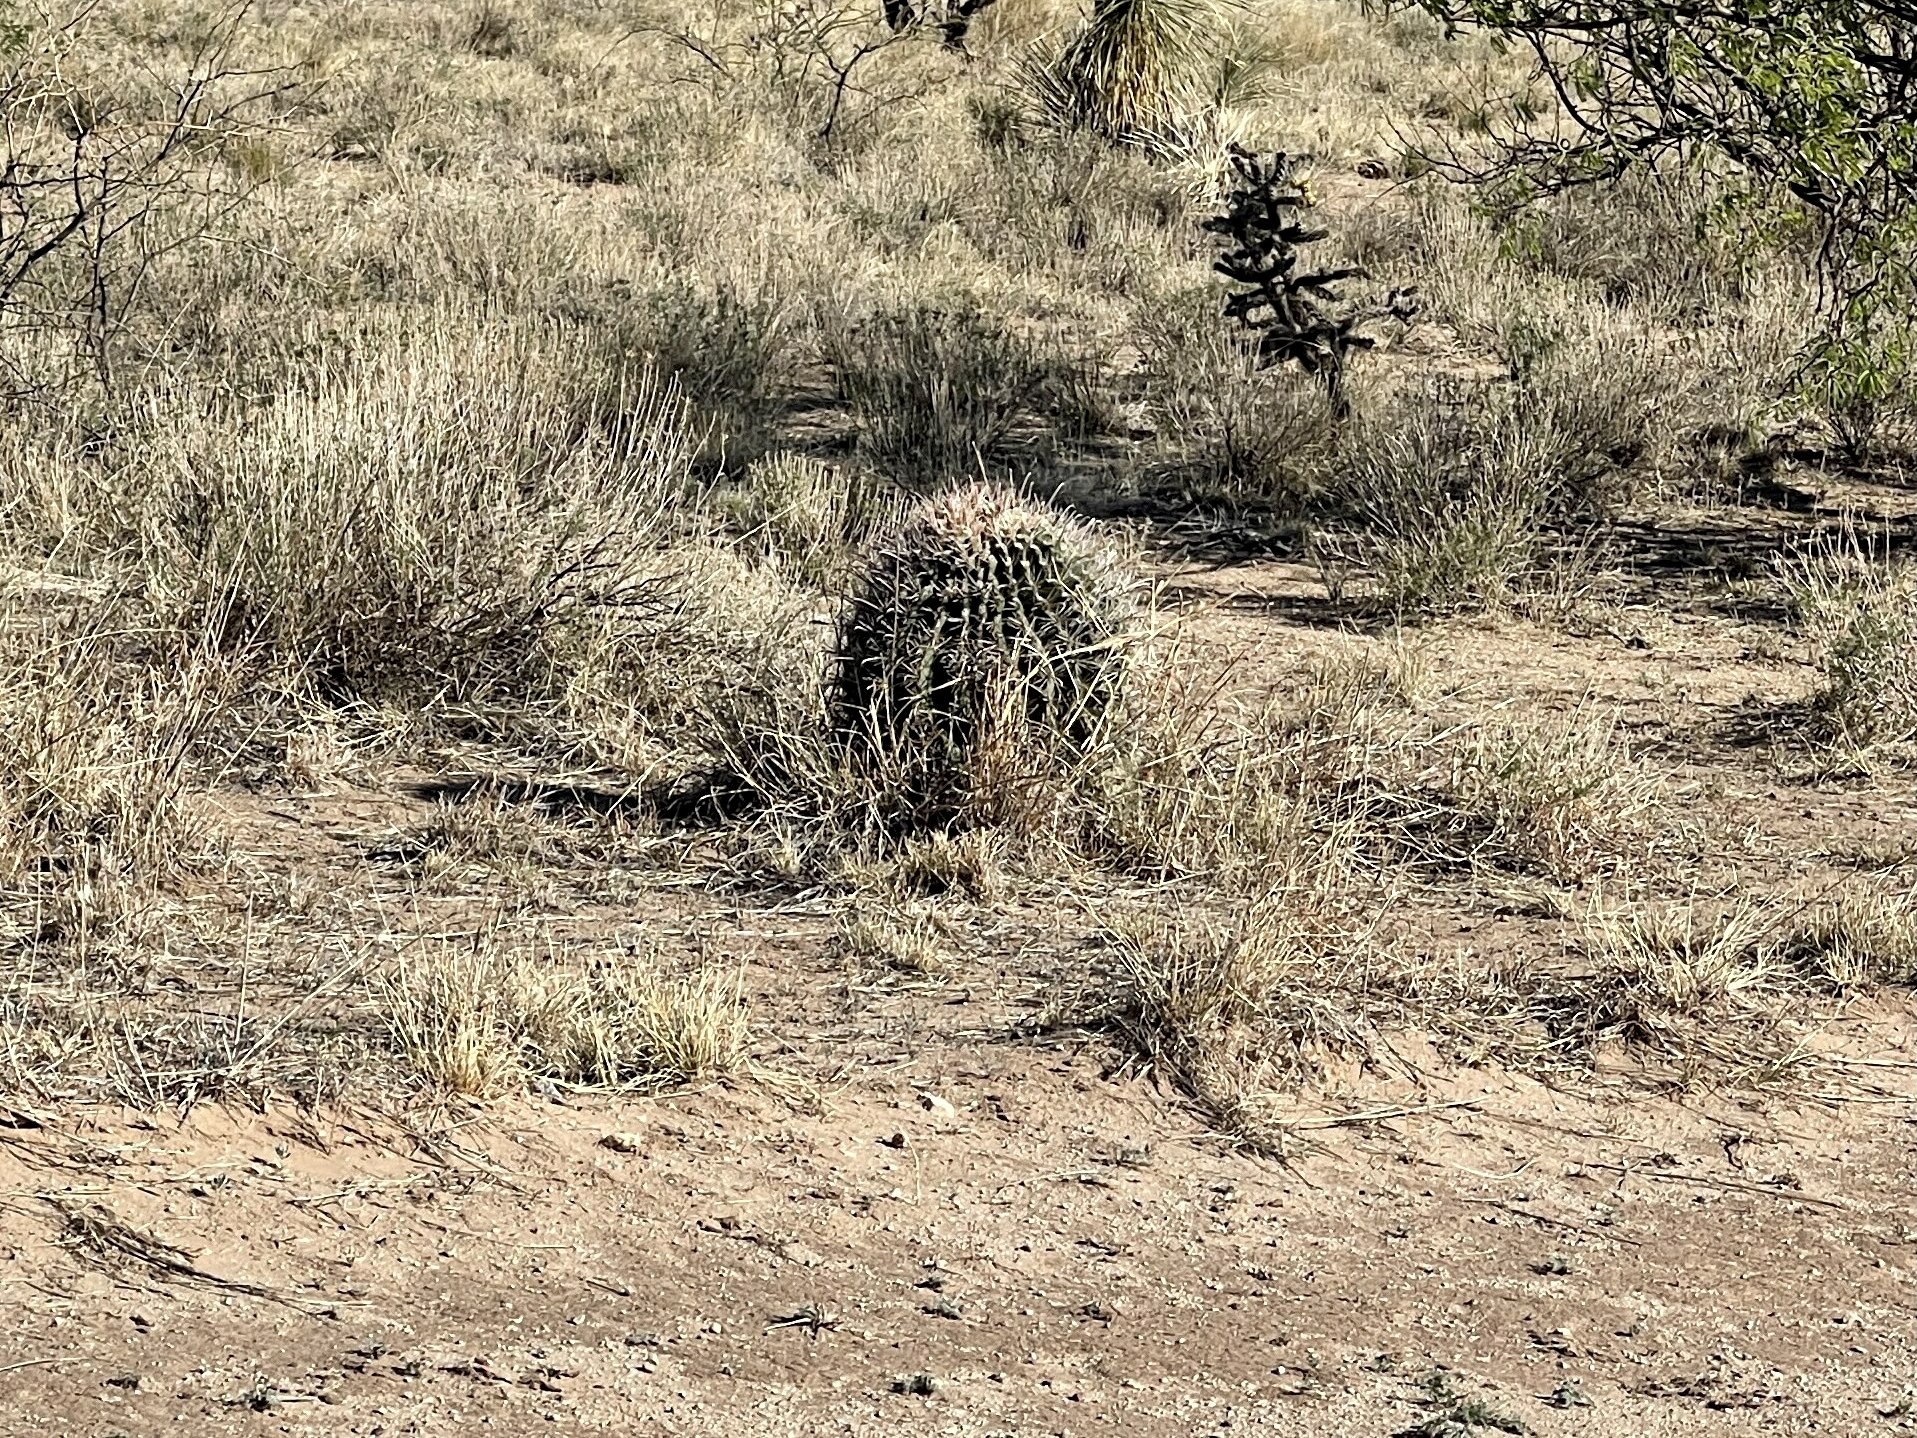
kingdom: Plantae
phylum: Tracheophyta
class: Magnoliopsida
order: Caryophyllales
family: Cactaceae
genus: Ferocactus
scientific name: Ferocactus wislizeni
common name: Candy barrel cactus
